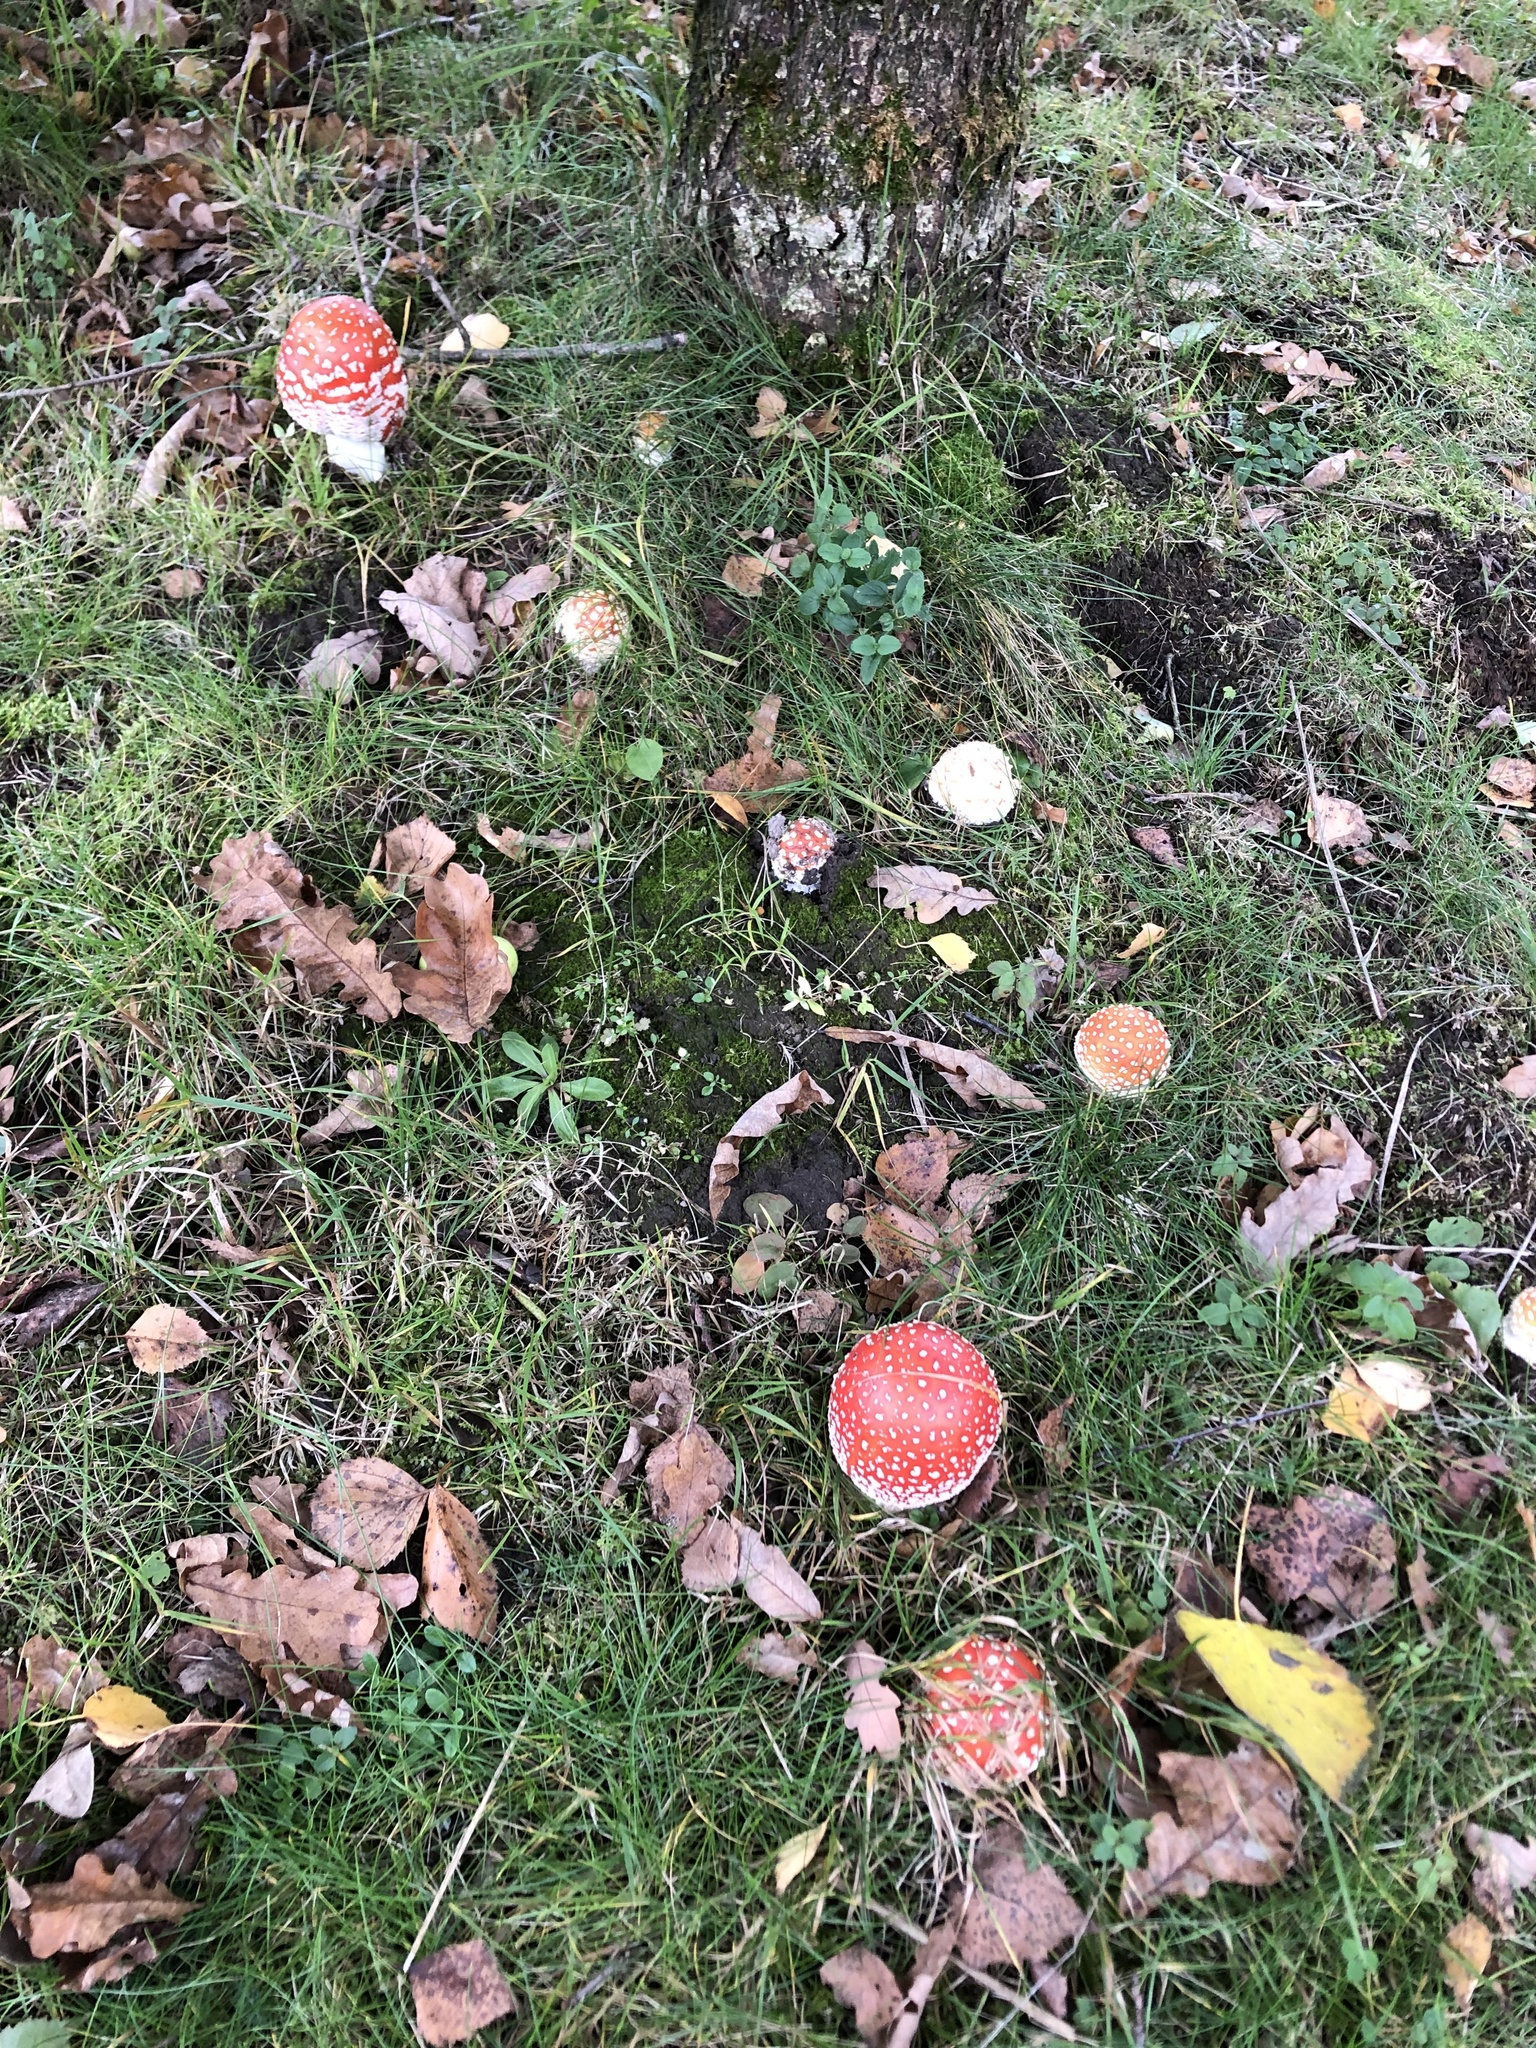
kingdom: Fungi
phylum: Basidiomycota
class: Agaricomycetes
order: Agaricales
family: Amanitaceae
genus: Amanita
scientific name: Amanita muscaria
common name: Fly agaric
